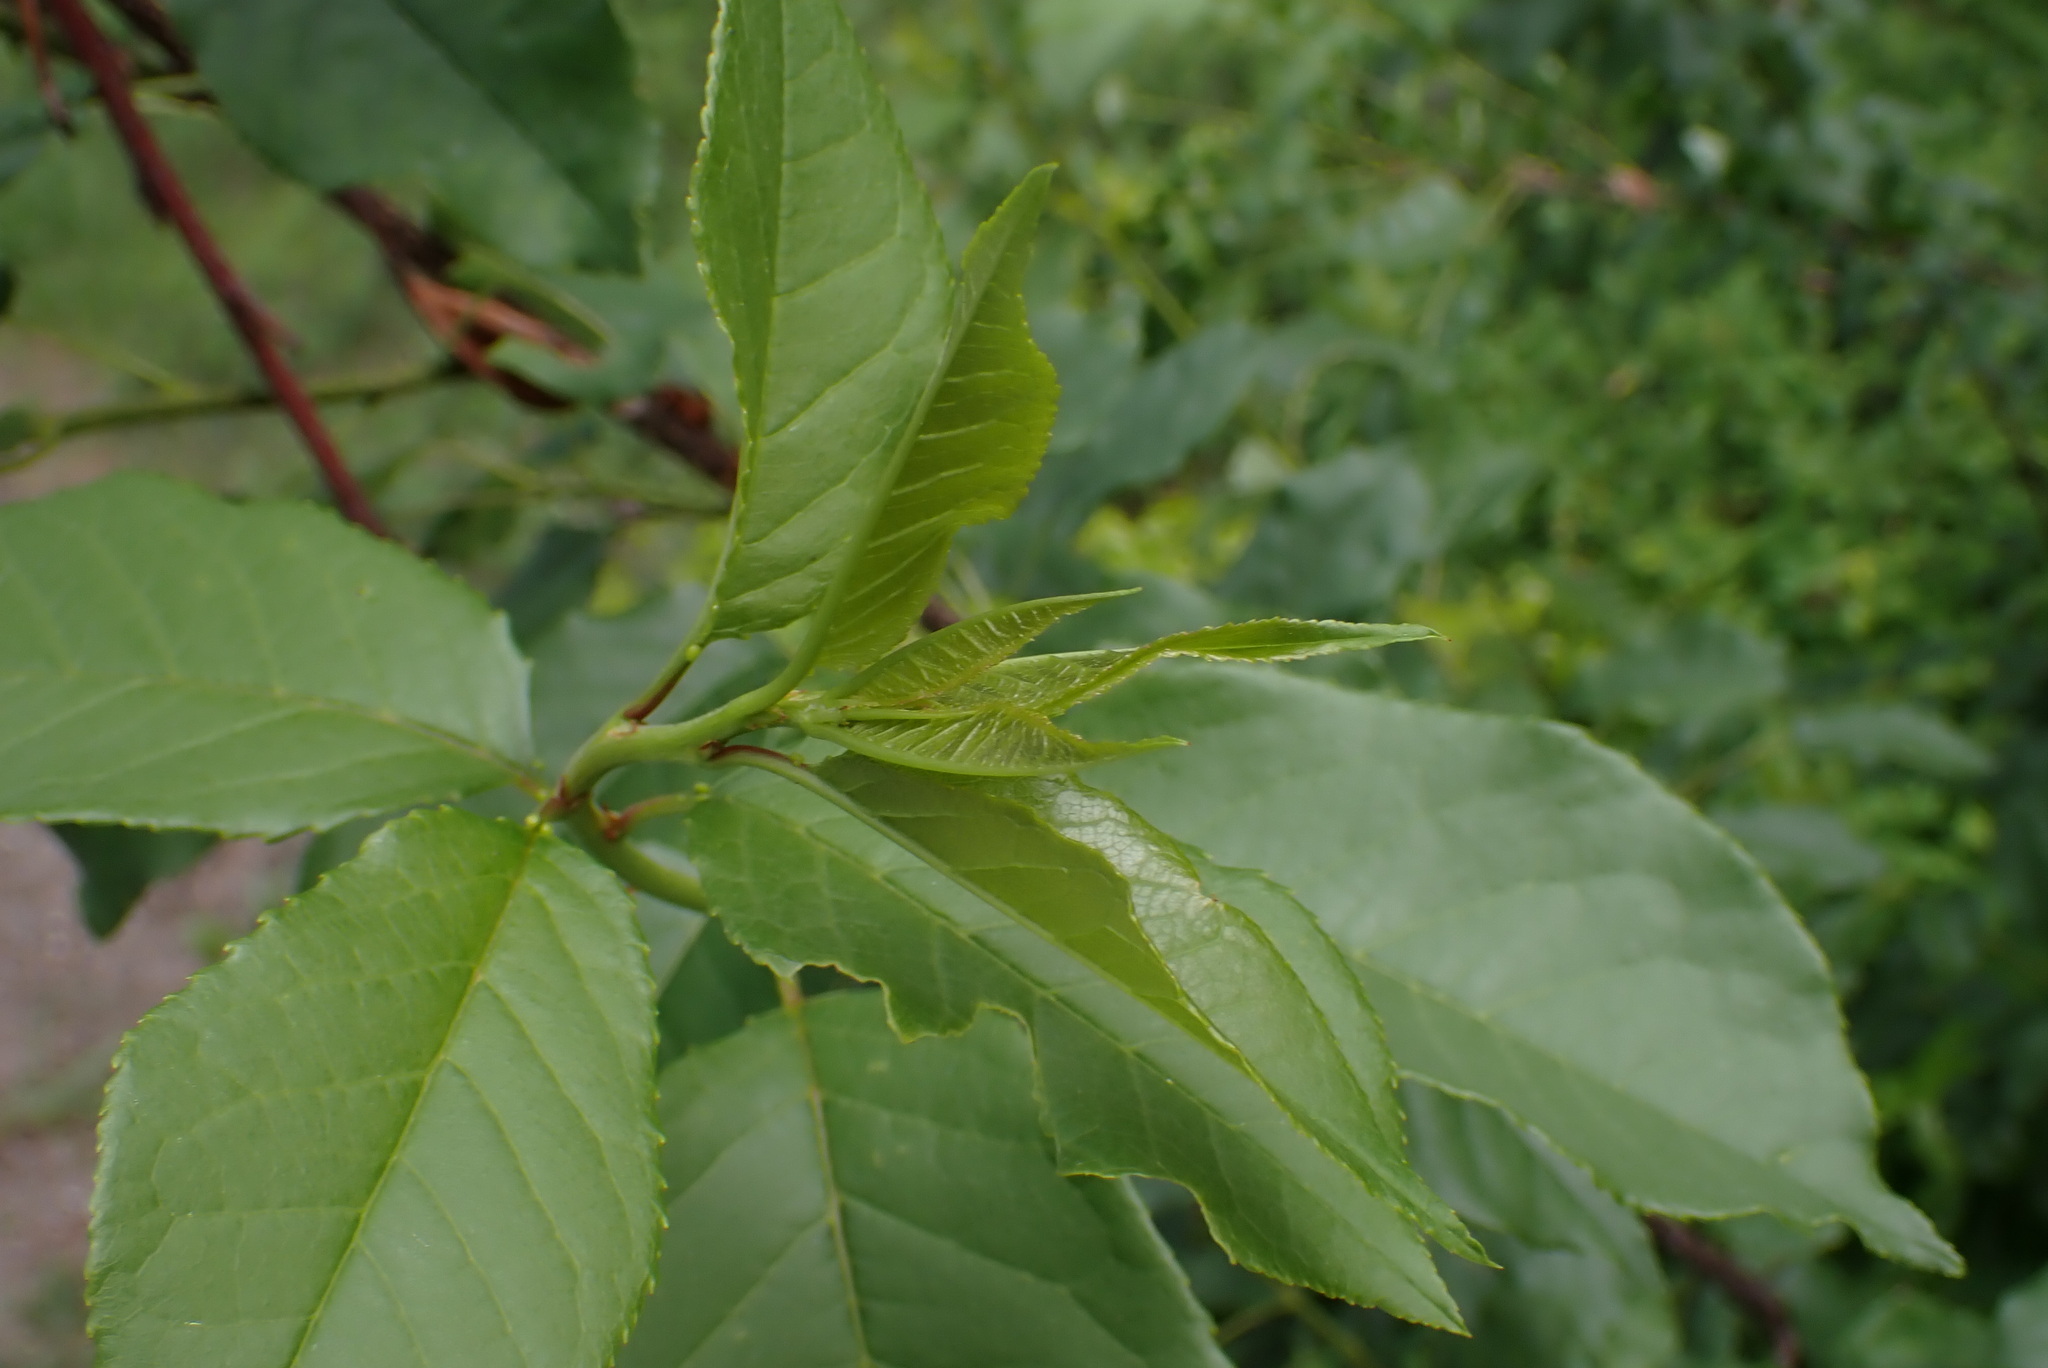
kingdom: Plantae
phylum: Tracheophyta
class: Magnoliopsida
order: Rosales
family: Rosaceae
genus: Prunus
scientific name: Prunus virginiana
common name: Chokecherry
